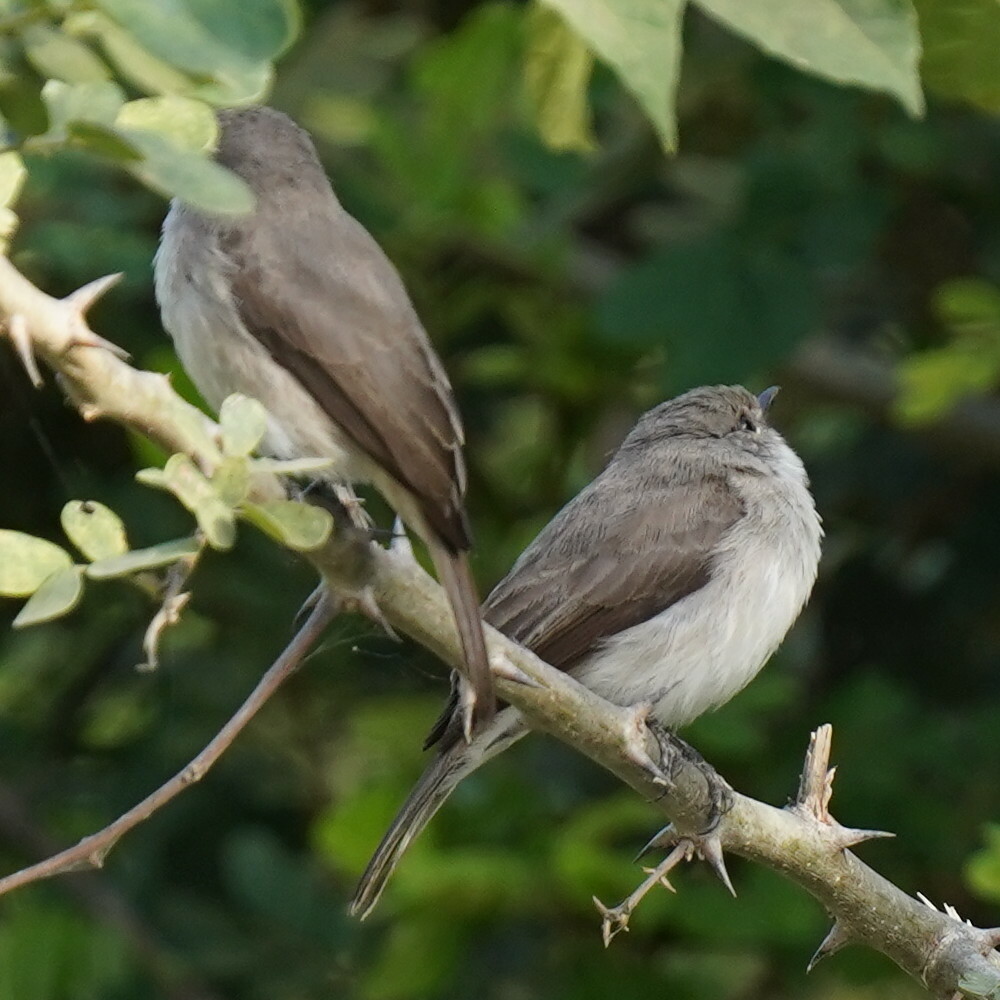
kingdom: Animalia
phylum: Chordata
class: Aves
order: Passeriformes
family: Muscicapidae
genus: Muscicapa
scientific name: Muscicapa aquatica
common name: Swamp flycatcher
